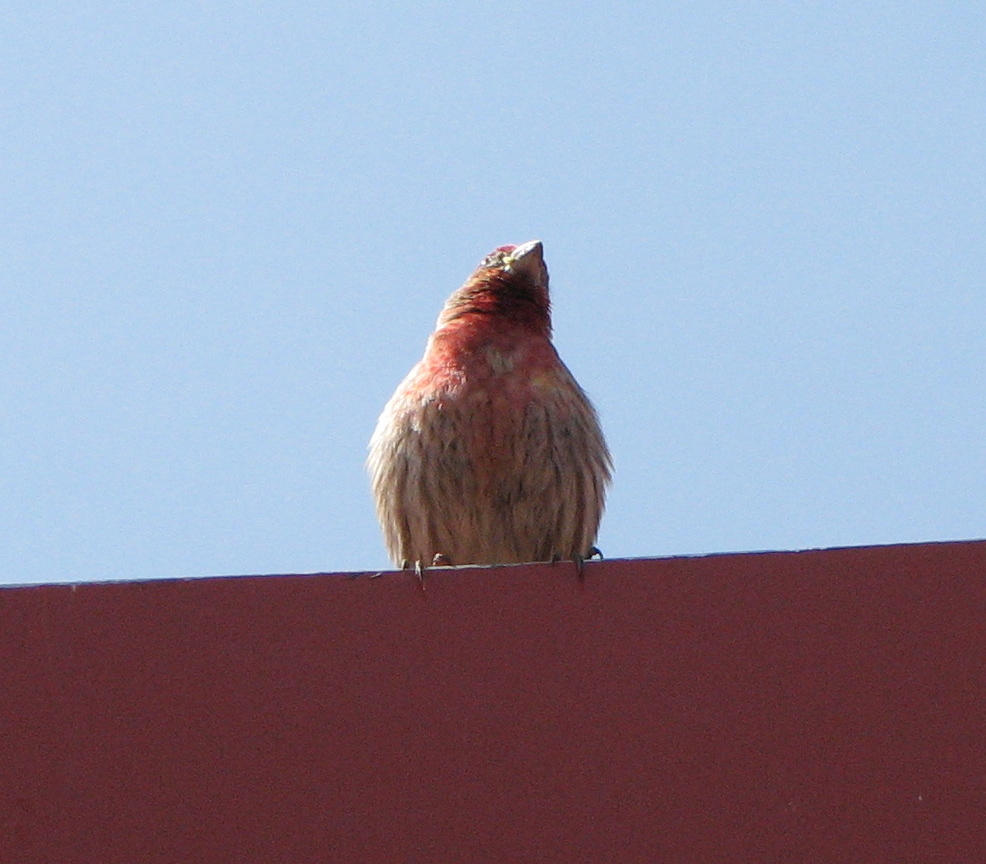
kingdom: Animalia
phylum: Chordata
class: Aves
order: Passeriformes
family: Fringillidae
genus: Haemorhous
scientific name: Haemorhous mexicanus
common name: House finch
